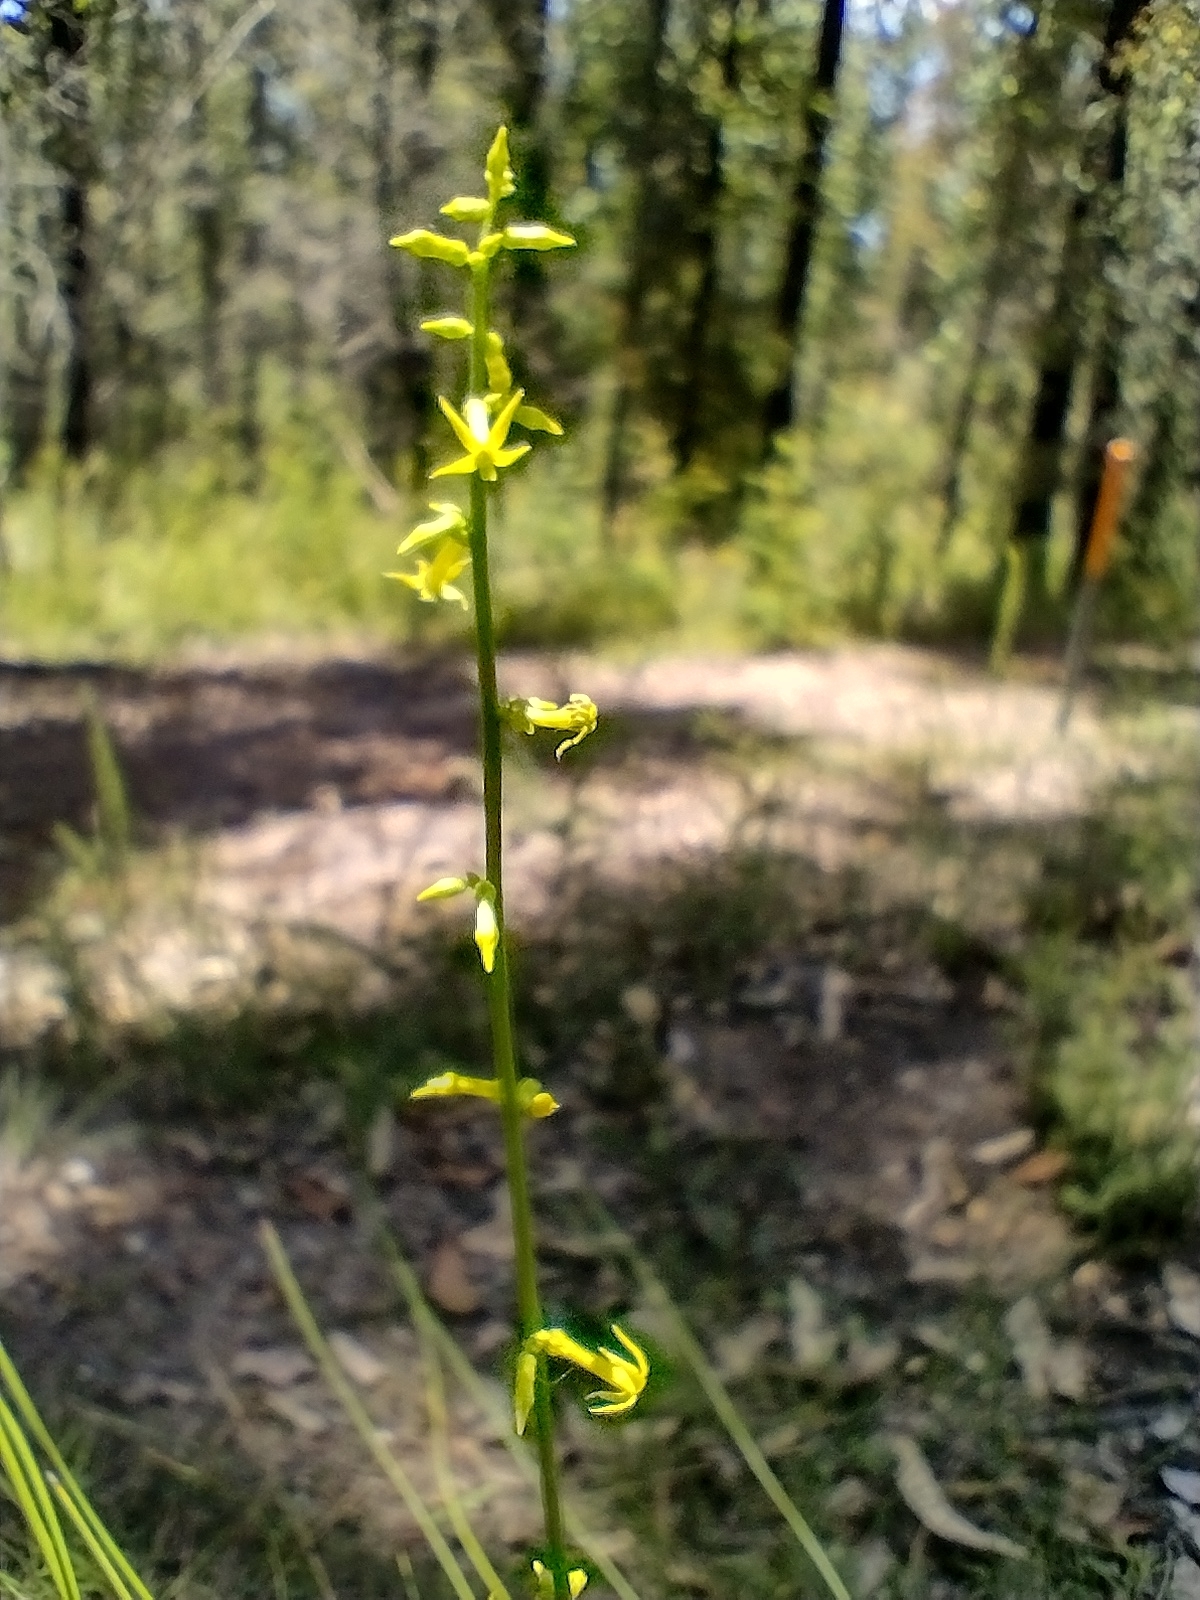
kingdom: Plantae
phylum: Tracheophyta
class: Magnoliopsida
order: Celastrales
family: Celastraceae
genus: Stackhousia
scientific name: Stackhousia viminea
